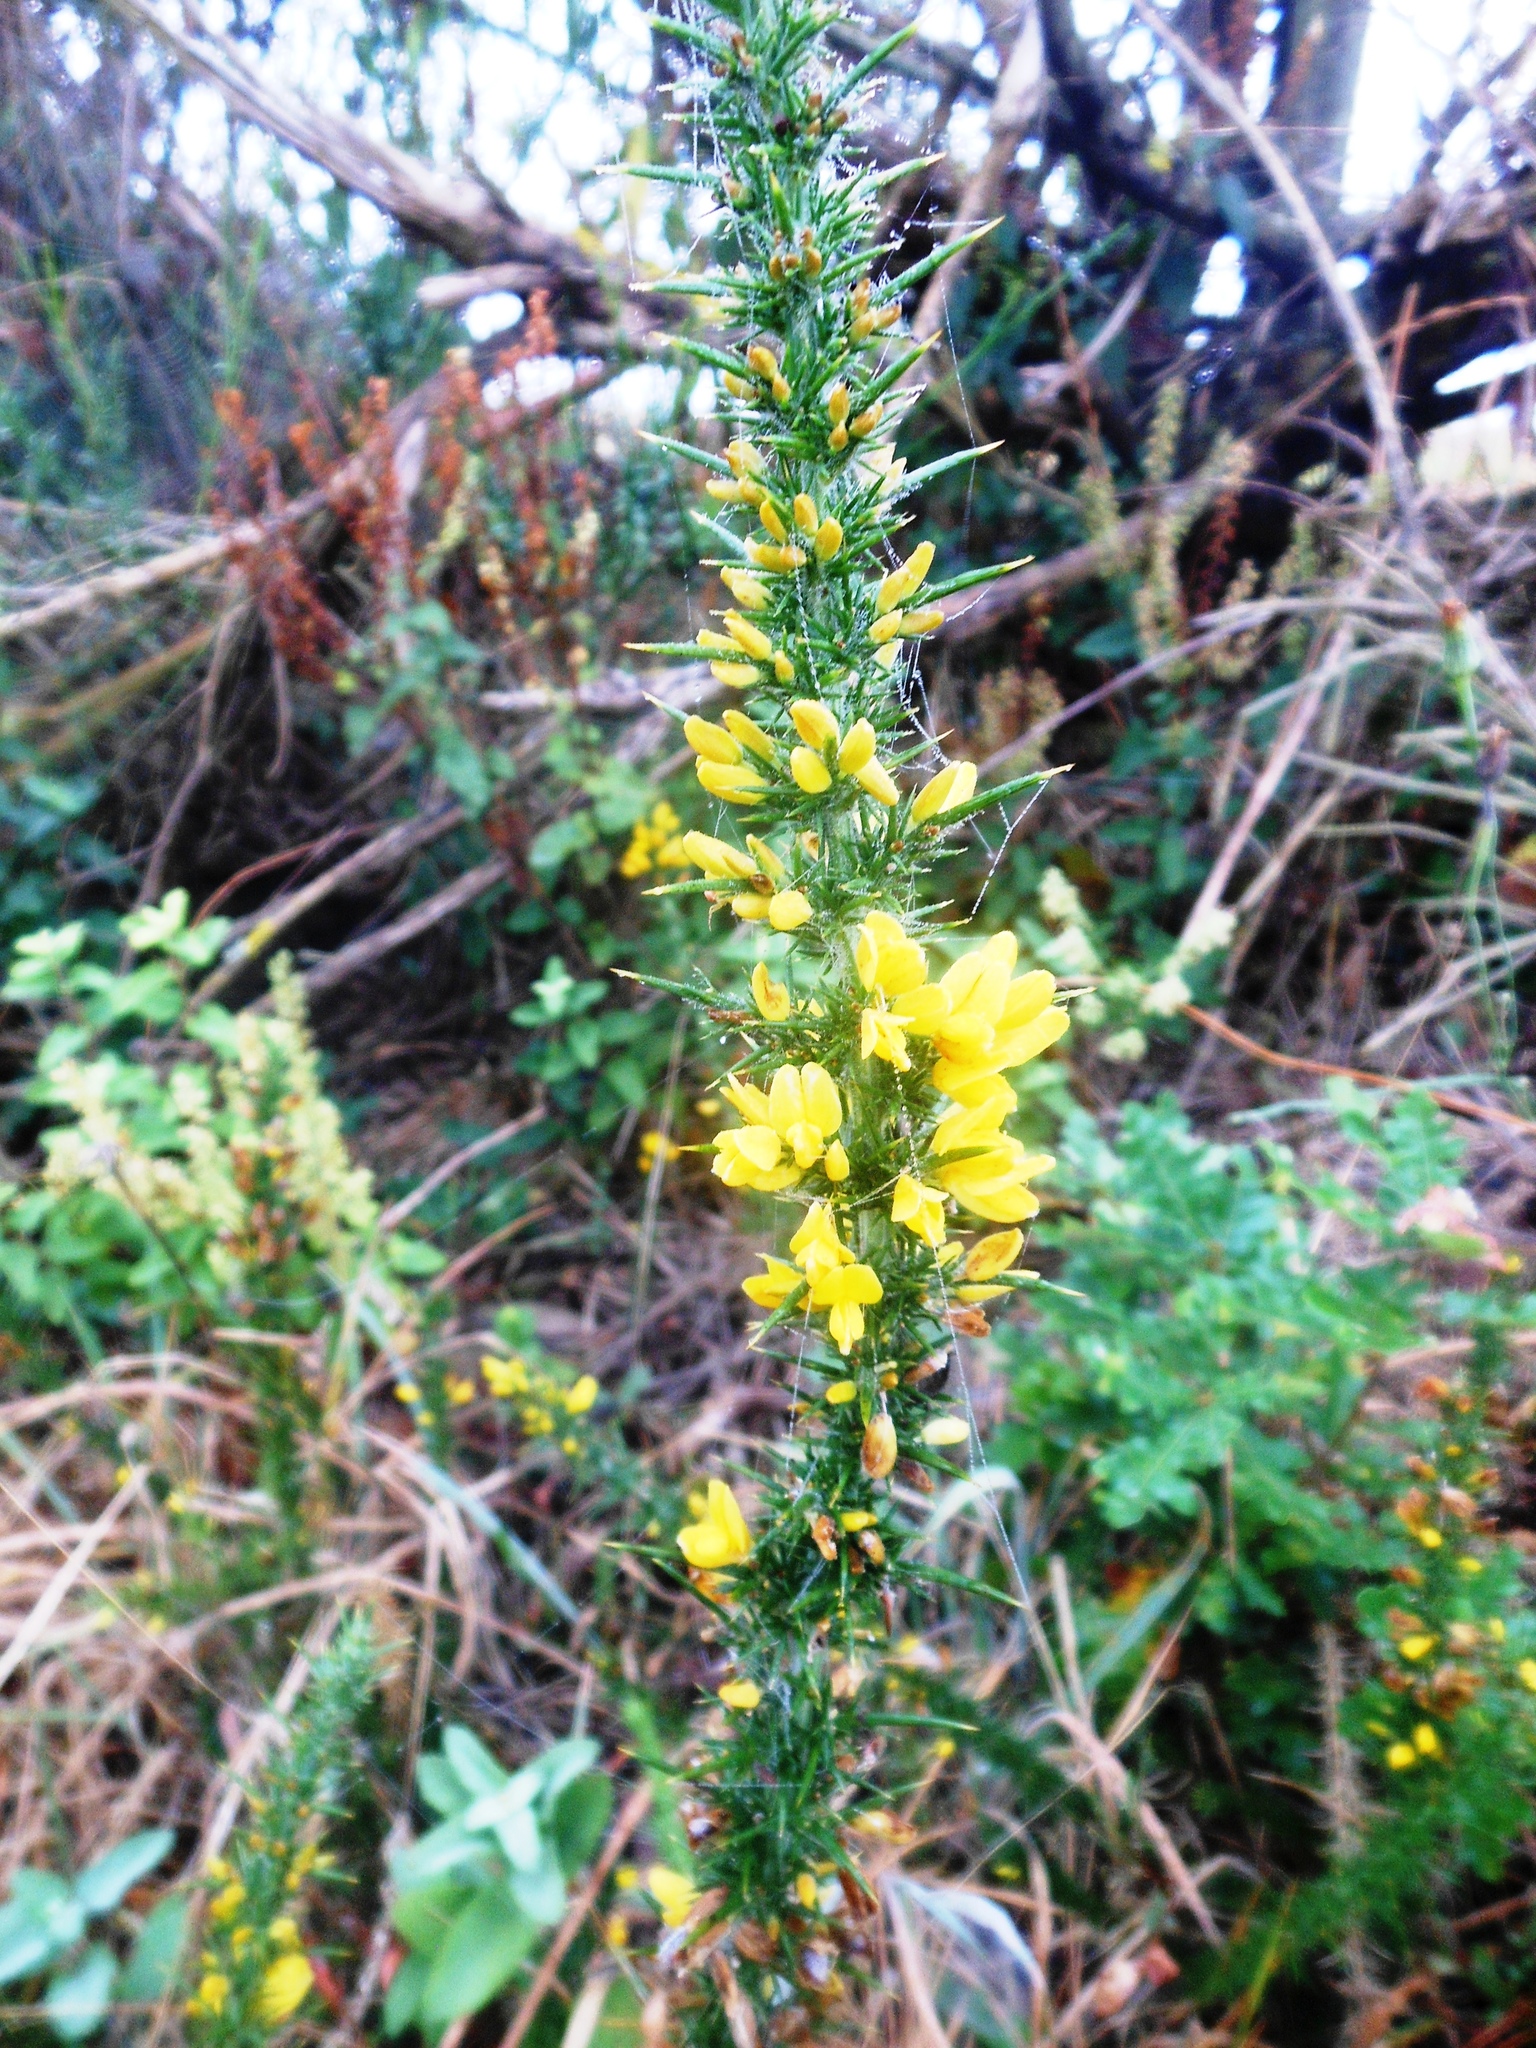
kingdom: Plantae
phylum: Tracheophyta
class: Magnoliopsida
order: Fabales
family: Fabaceae
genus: Ulex
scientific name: Ulex minor
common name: Dwarf gorse
